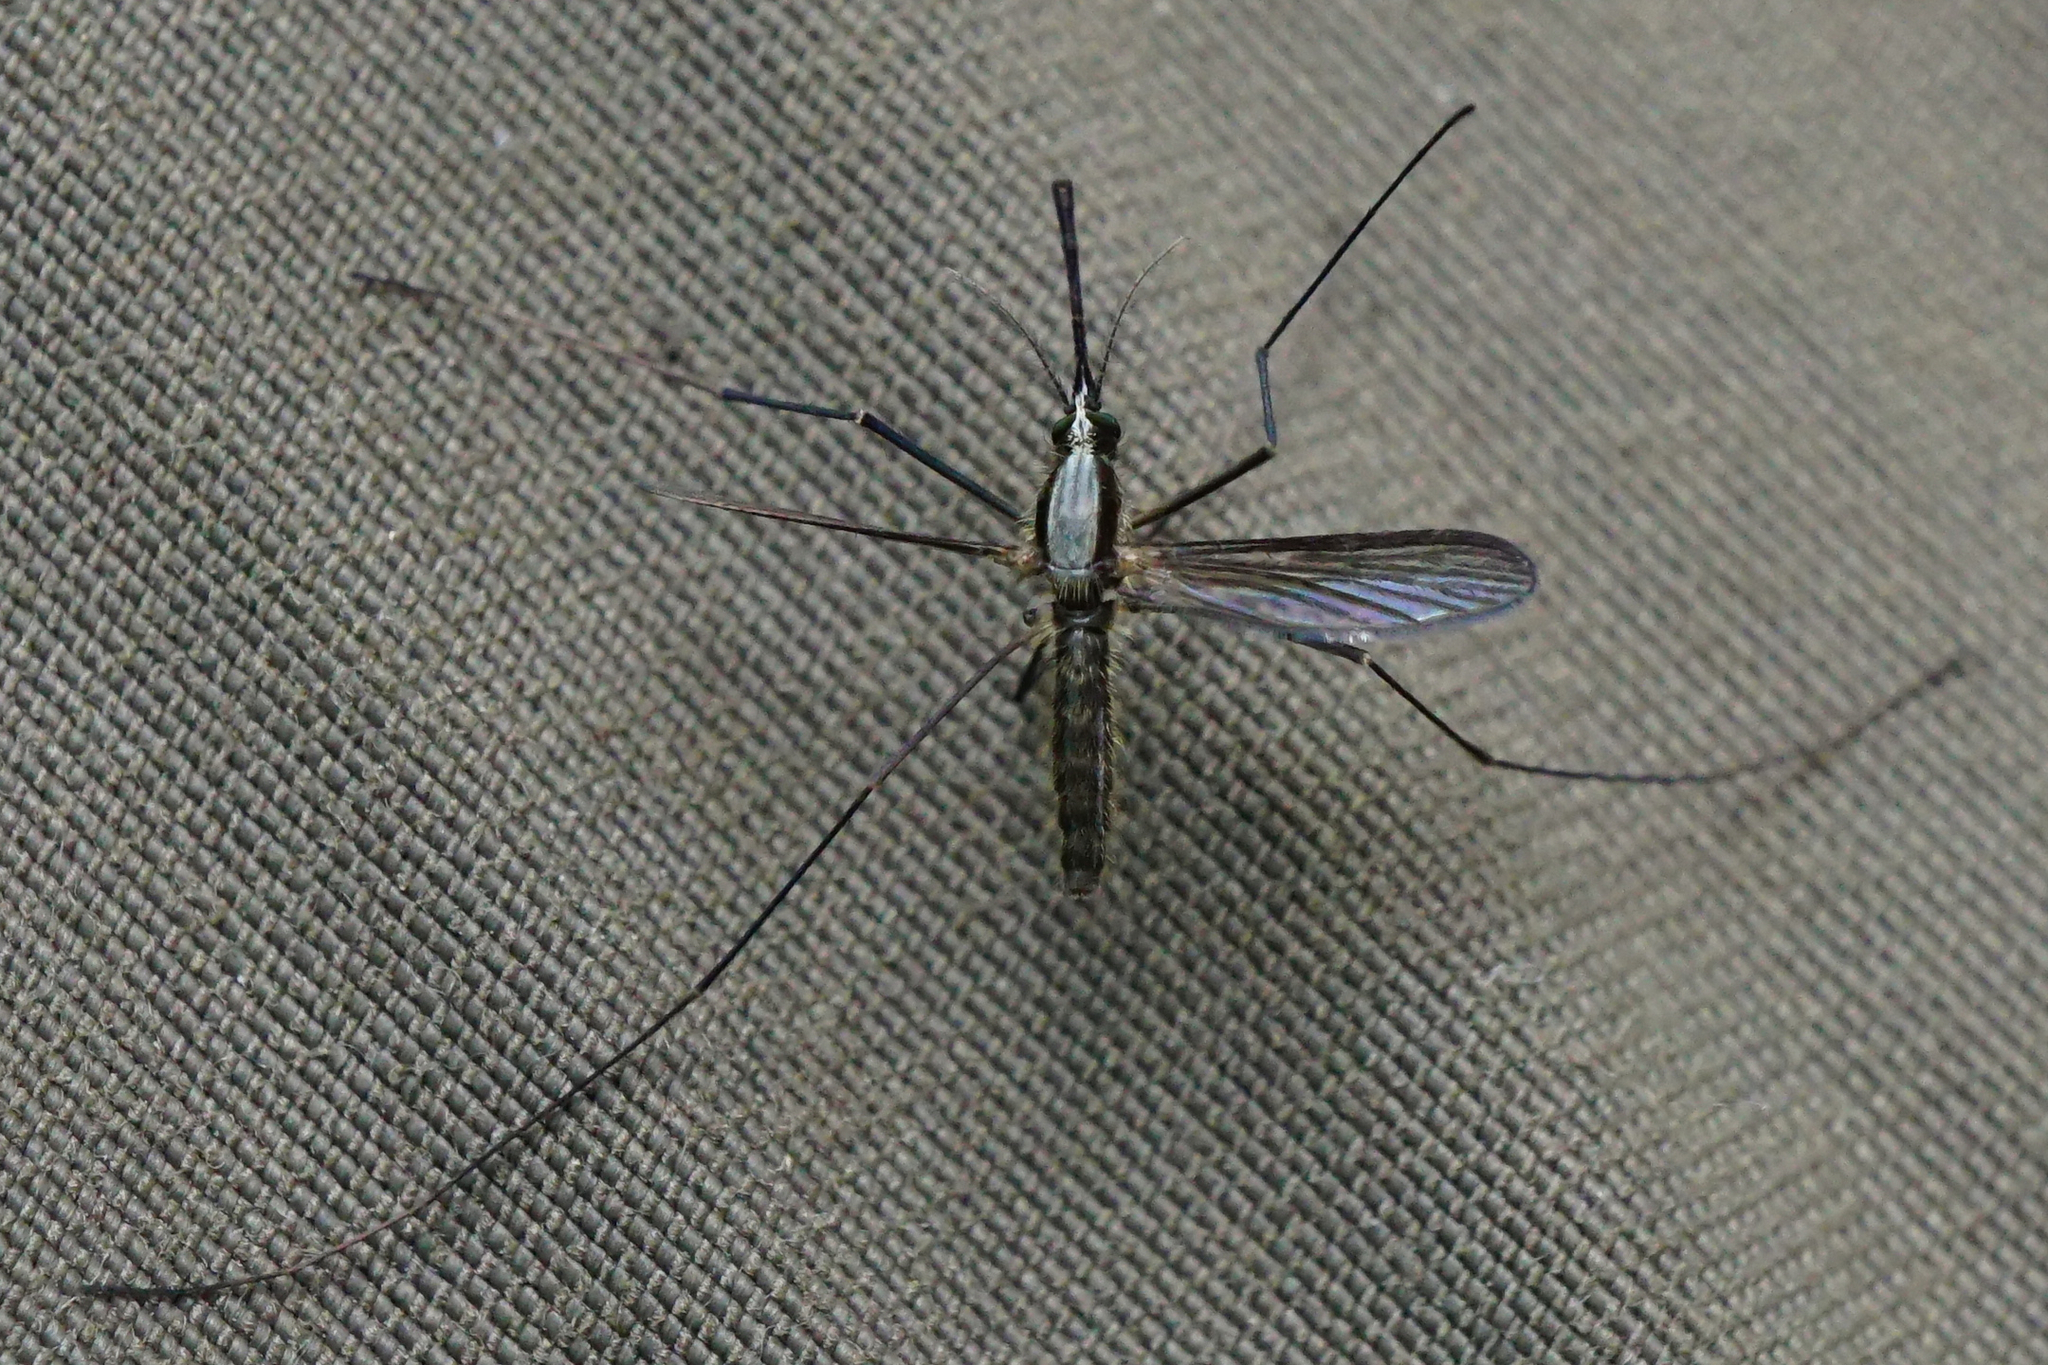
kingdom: Animalia
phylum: Arthropoda
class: Insecta
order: Diptera
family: Culicidae
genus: Anopheles
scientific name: Anopheles plumbeus
